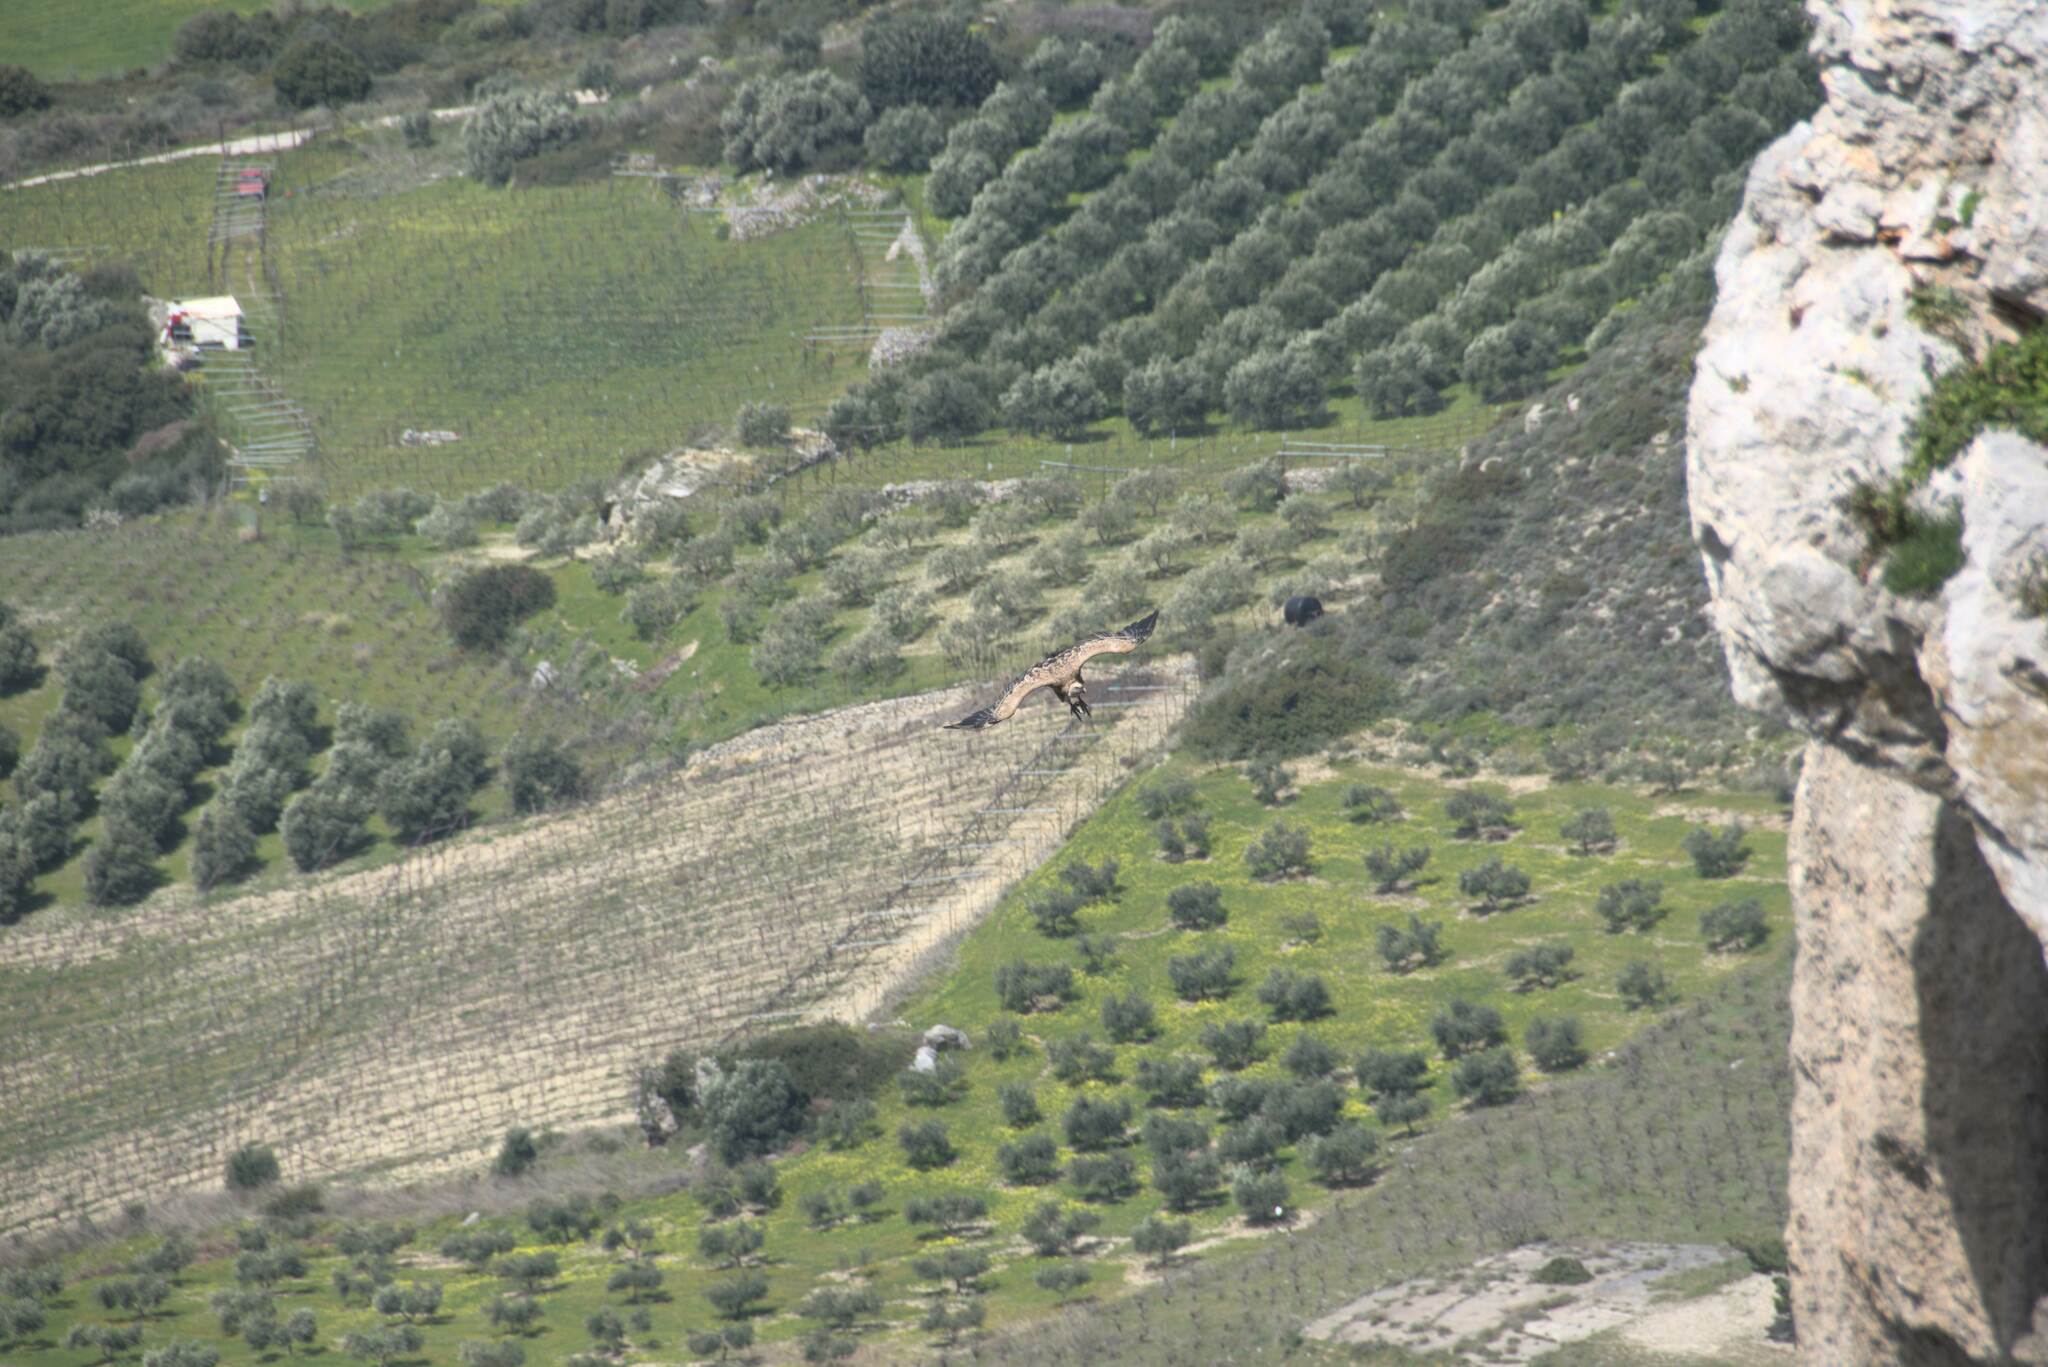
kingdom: Animalia
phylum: Chordata
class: Aves
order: Accipitriformes
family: Accipitridae
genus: Gyps
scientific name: Gyps fulvus
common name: Griffon vulture
